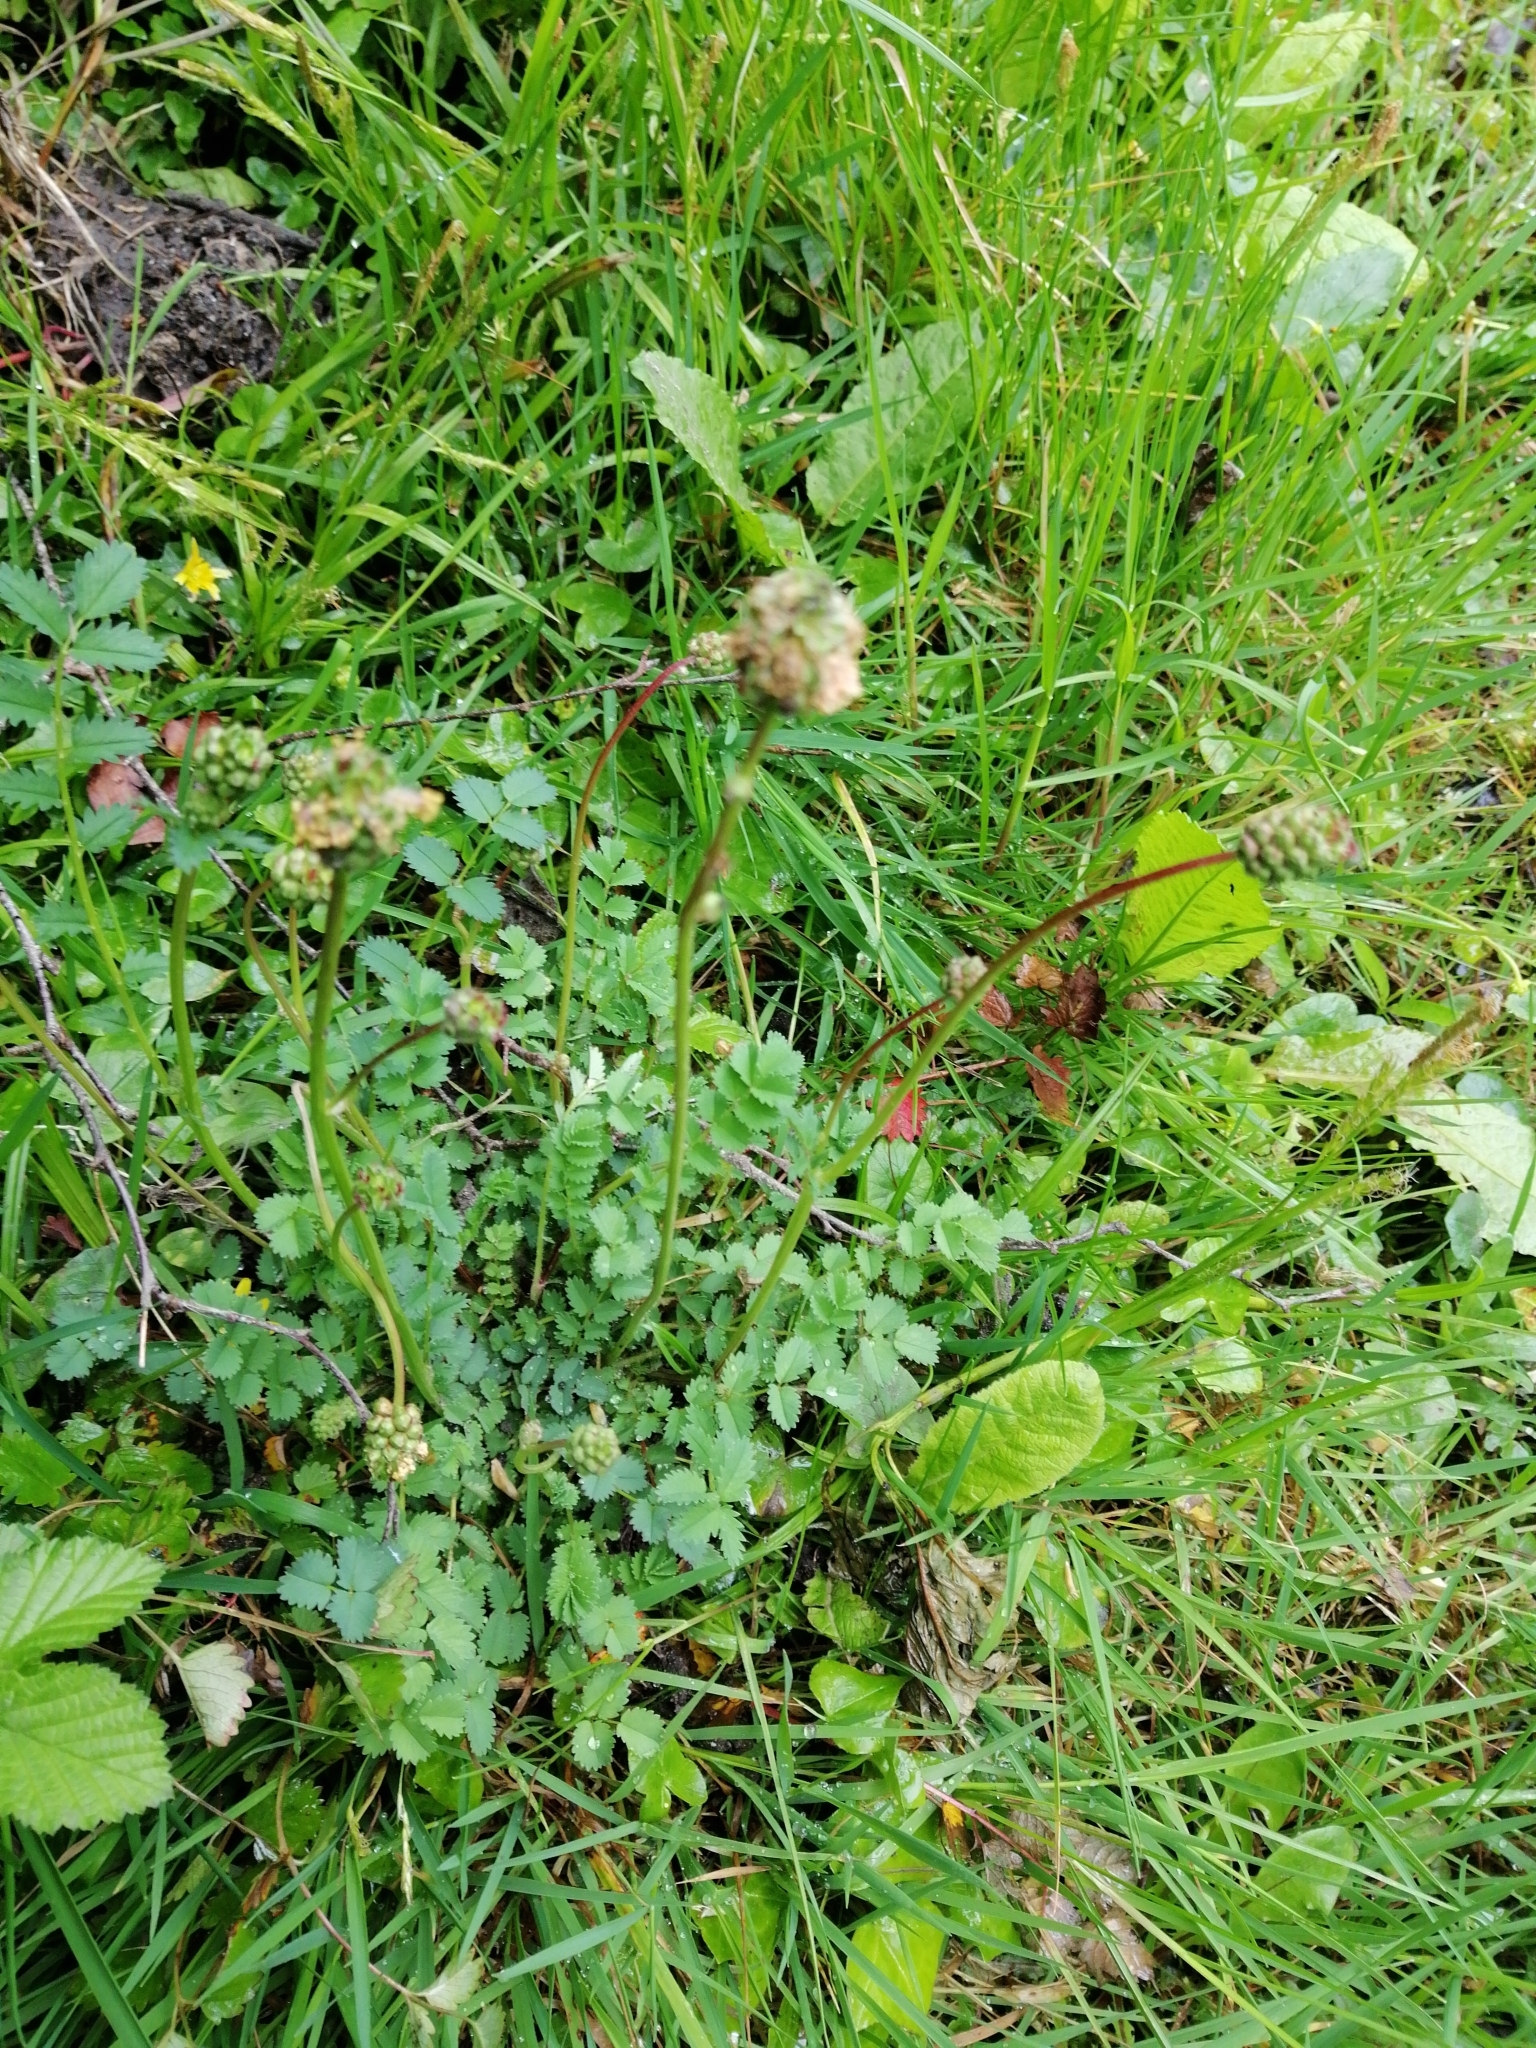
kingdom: Plantae
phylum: Tracheophyta
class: Magnoliopsida
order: Rosales
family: Rosaceae
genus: Poterium
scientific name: Poterium sanguisorba
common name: Salad burnet
